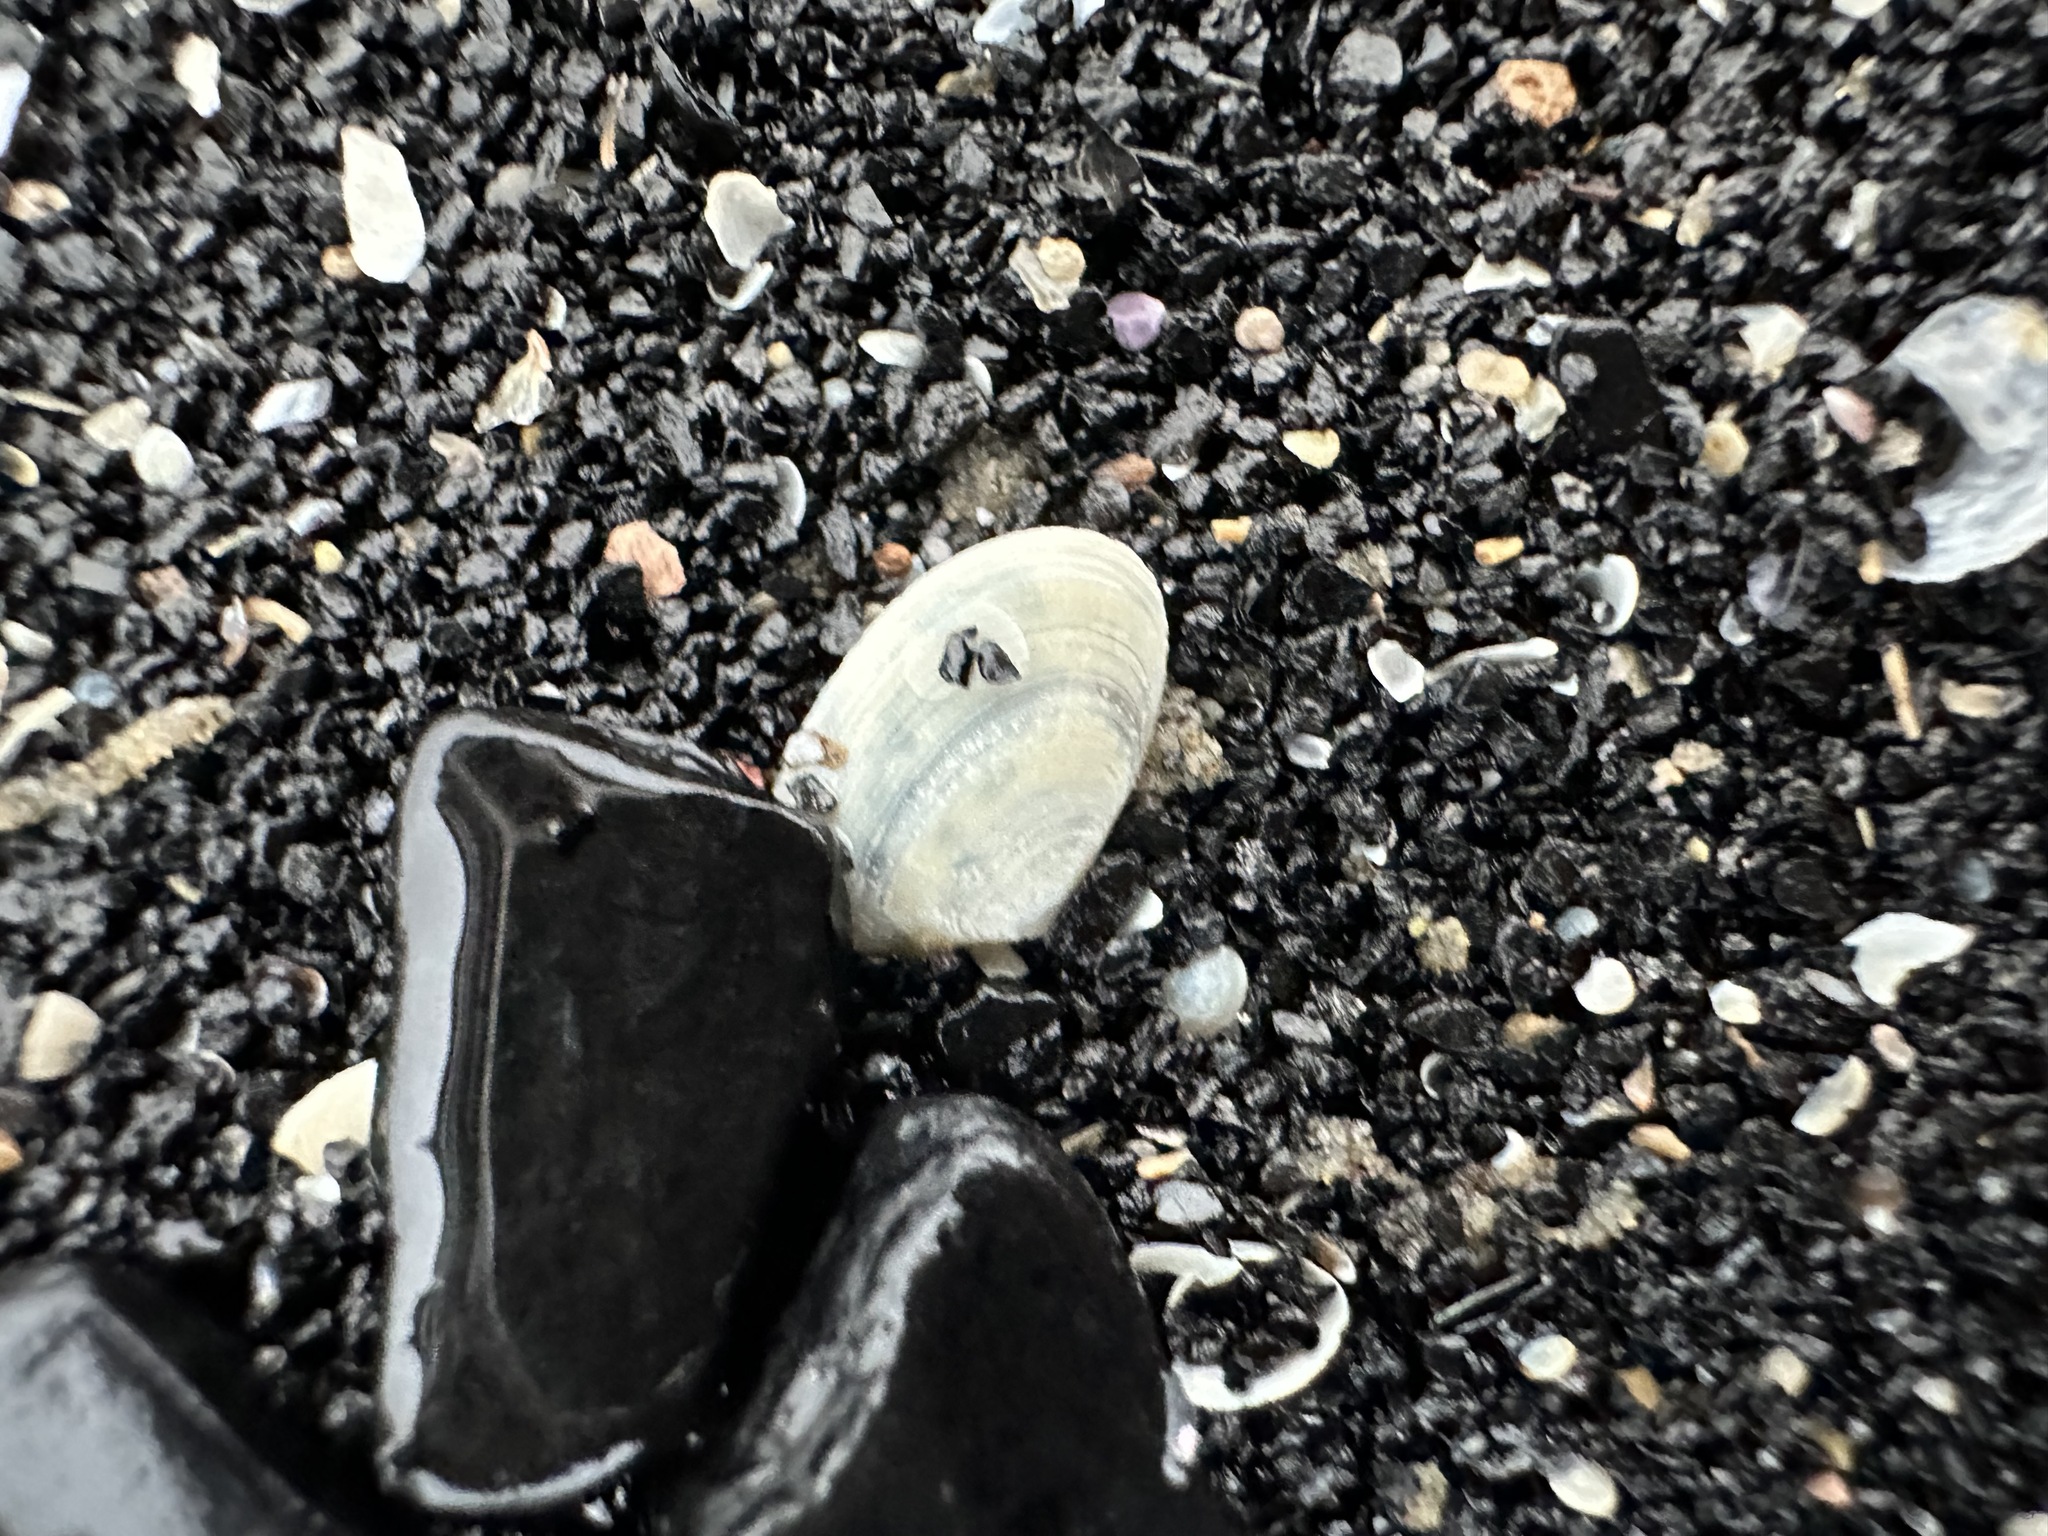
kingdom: Animalia
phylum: Mollusca
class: Bivalvia
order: Cardiida
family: Tellinidae
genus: Ameritella
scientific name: Ameritella agilis
